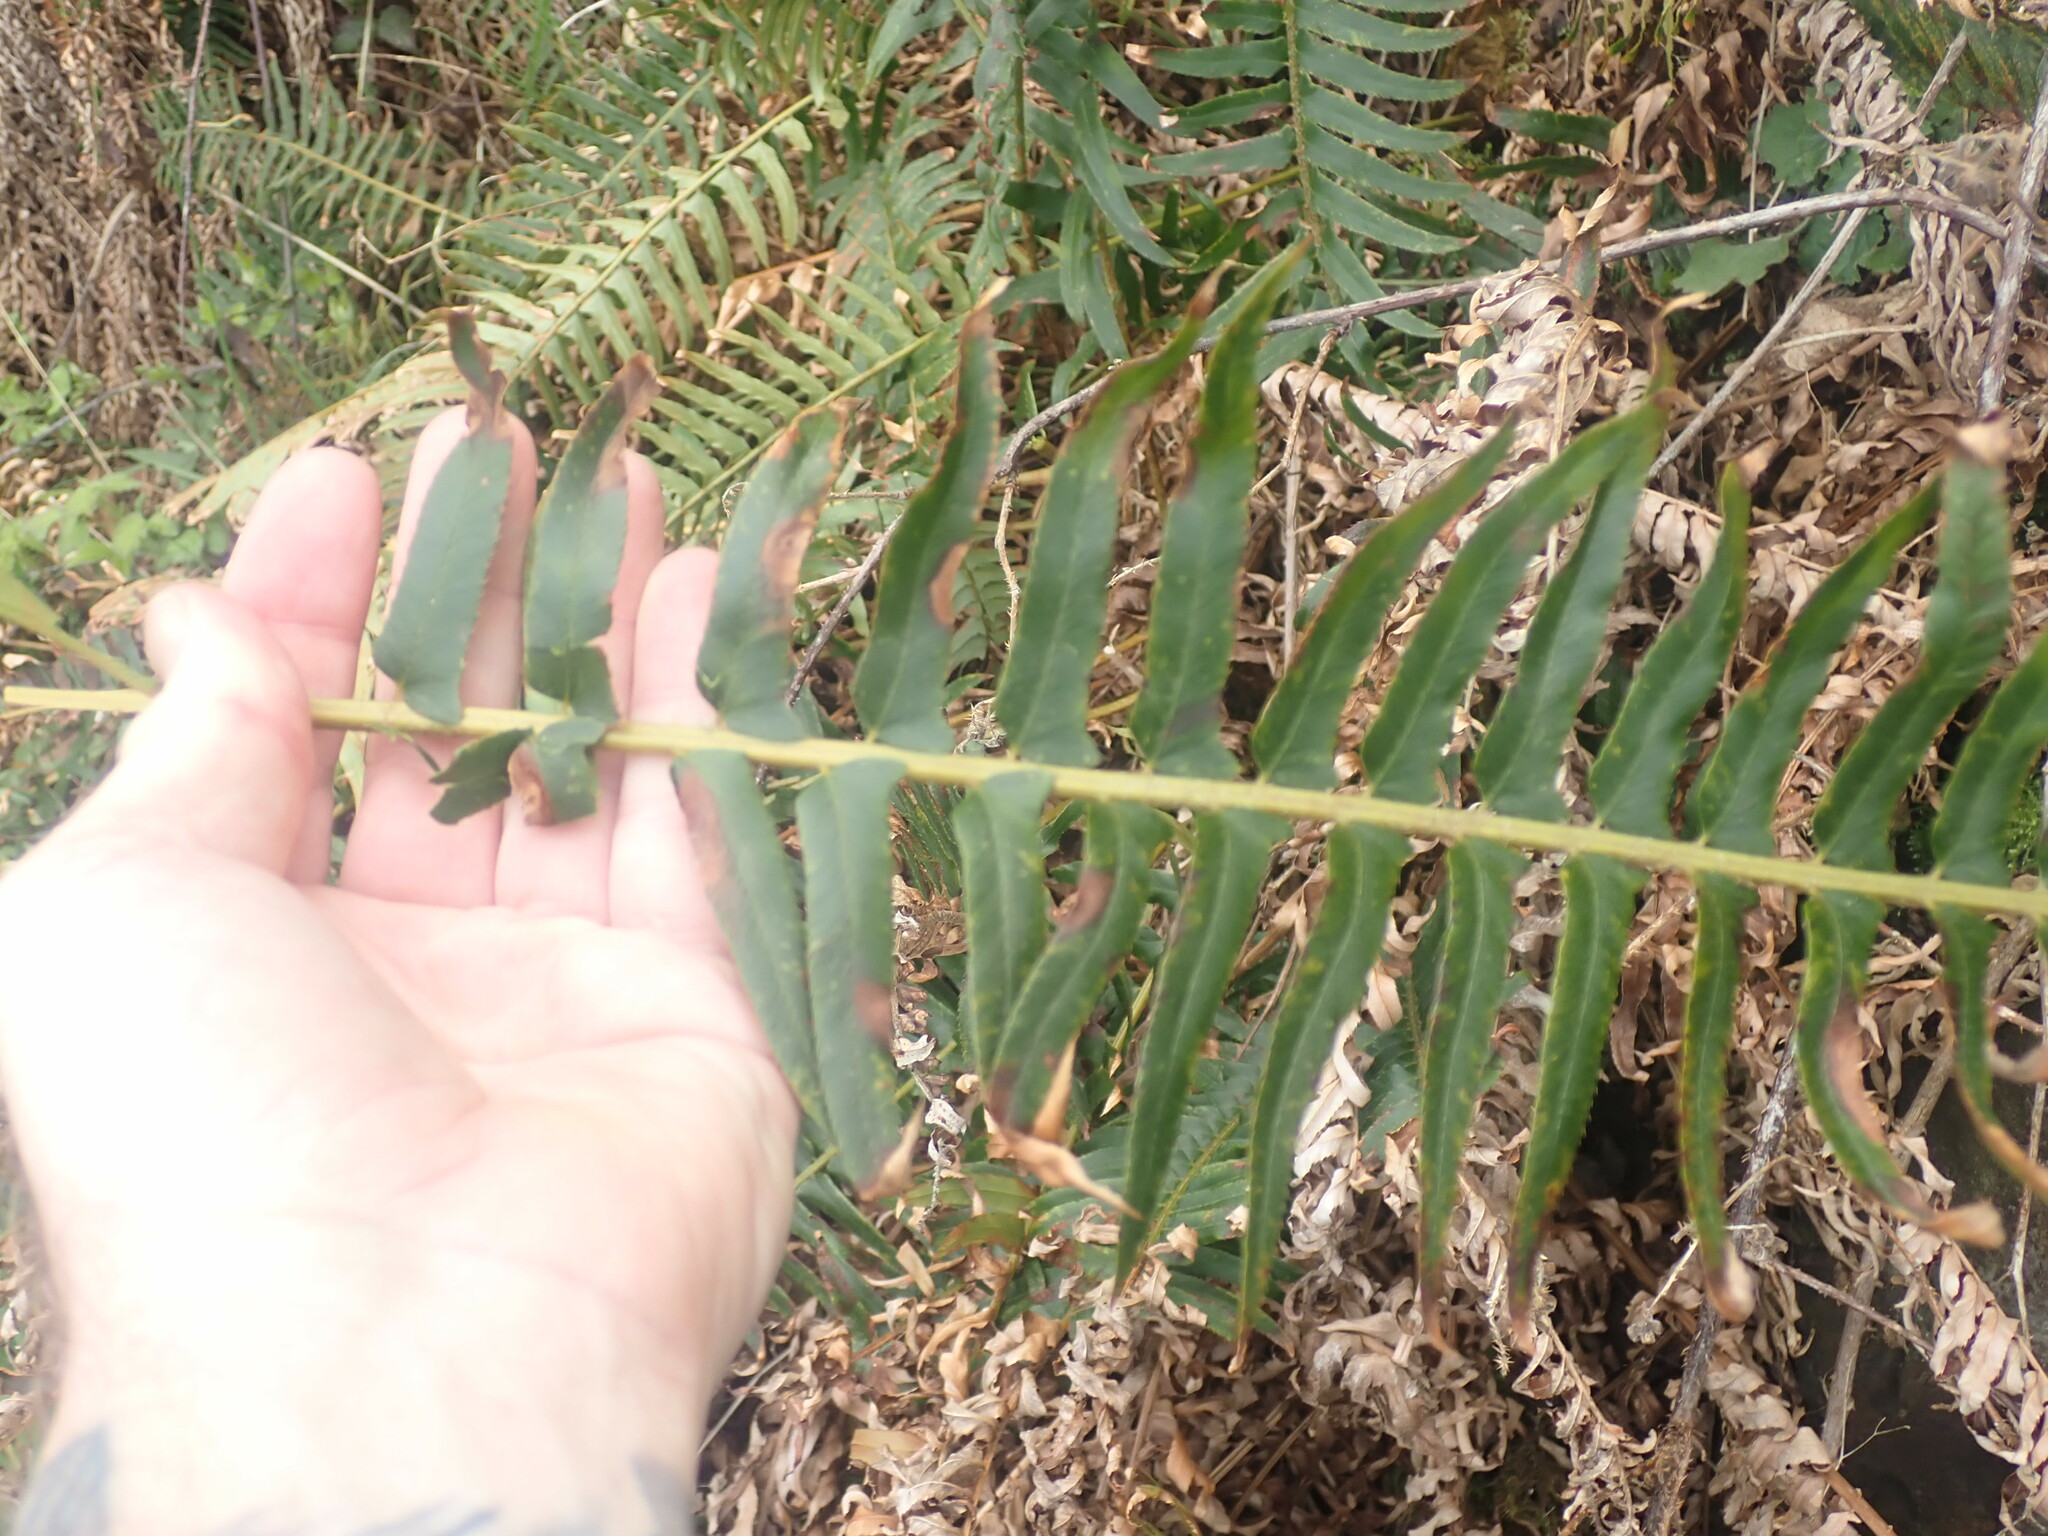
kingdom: Plantae
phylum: Tracheophyta
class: Polypodiopsida
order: Polypodiales
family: Dryopteridaceae
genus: Polystichum
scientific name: Polystichum munitum
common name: Western sword-fern
